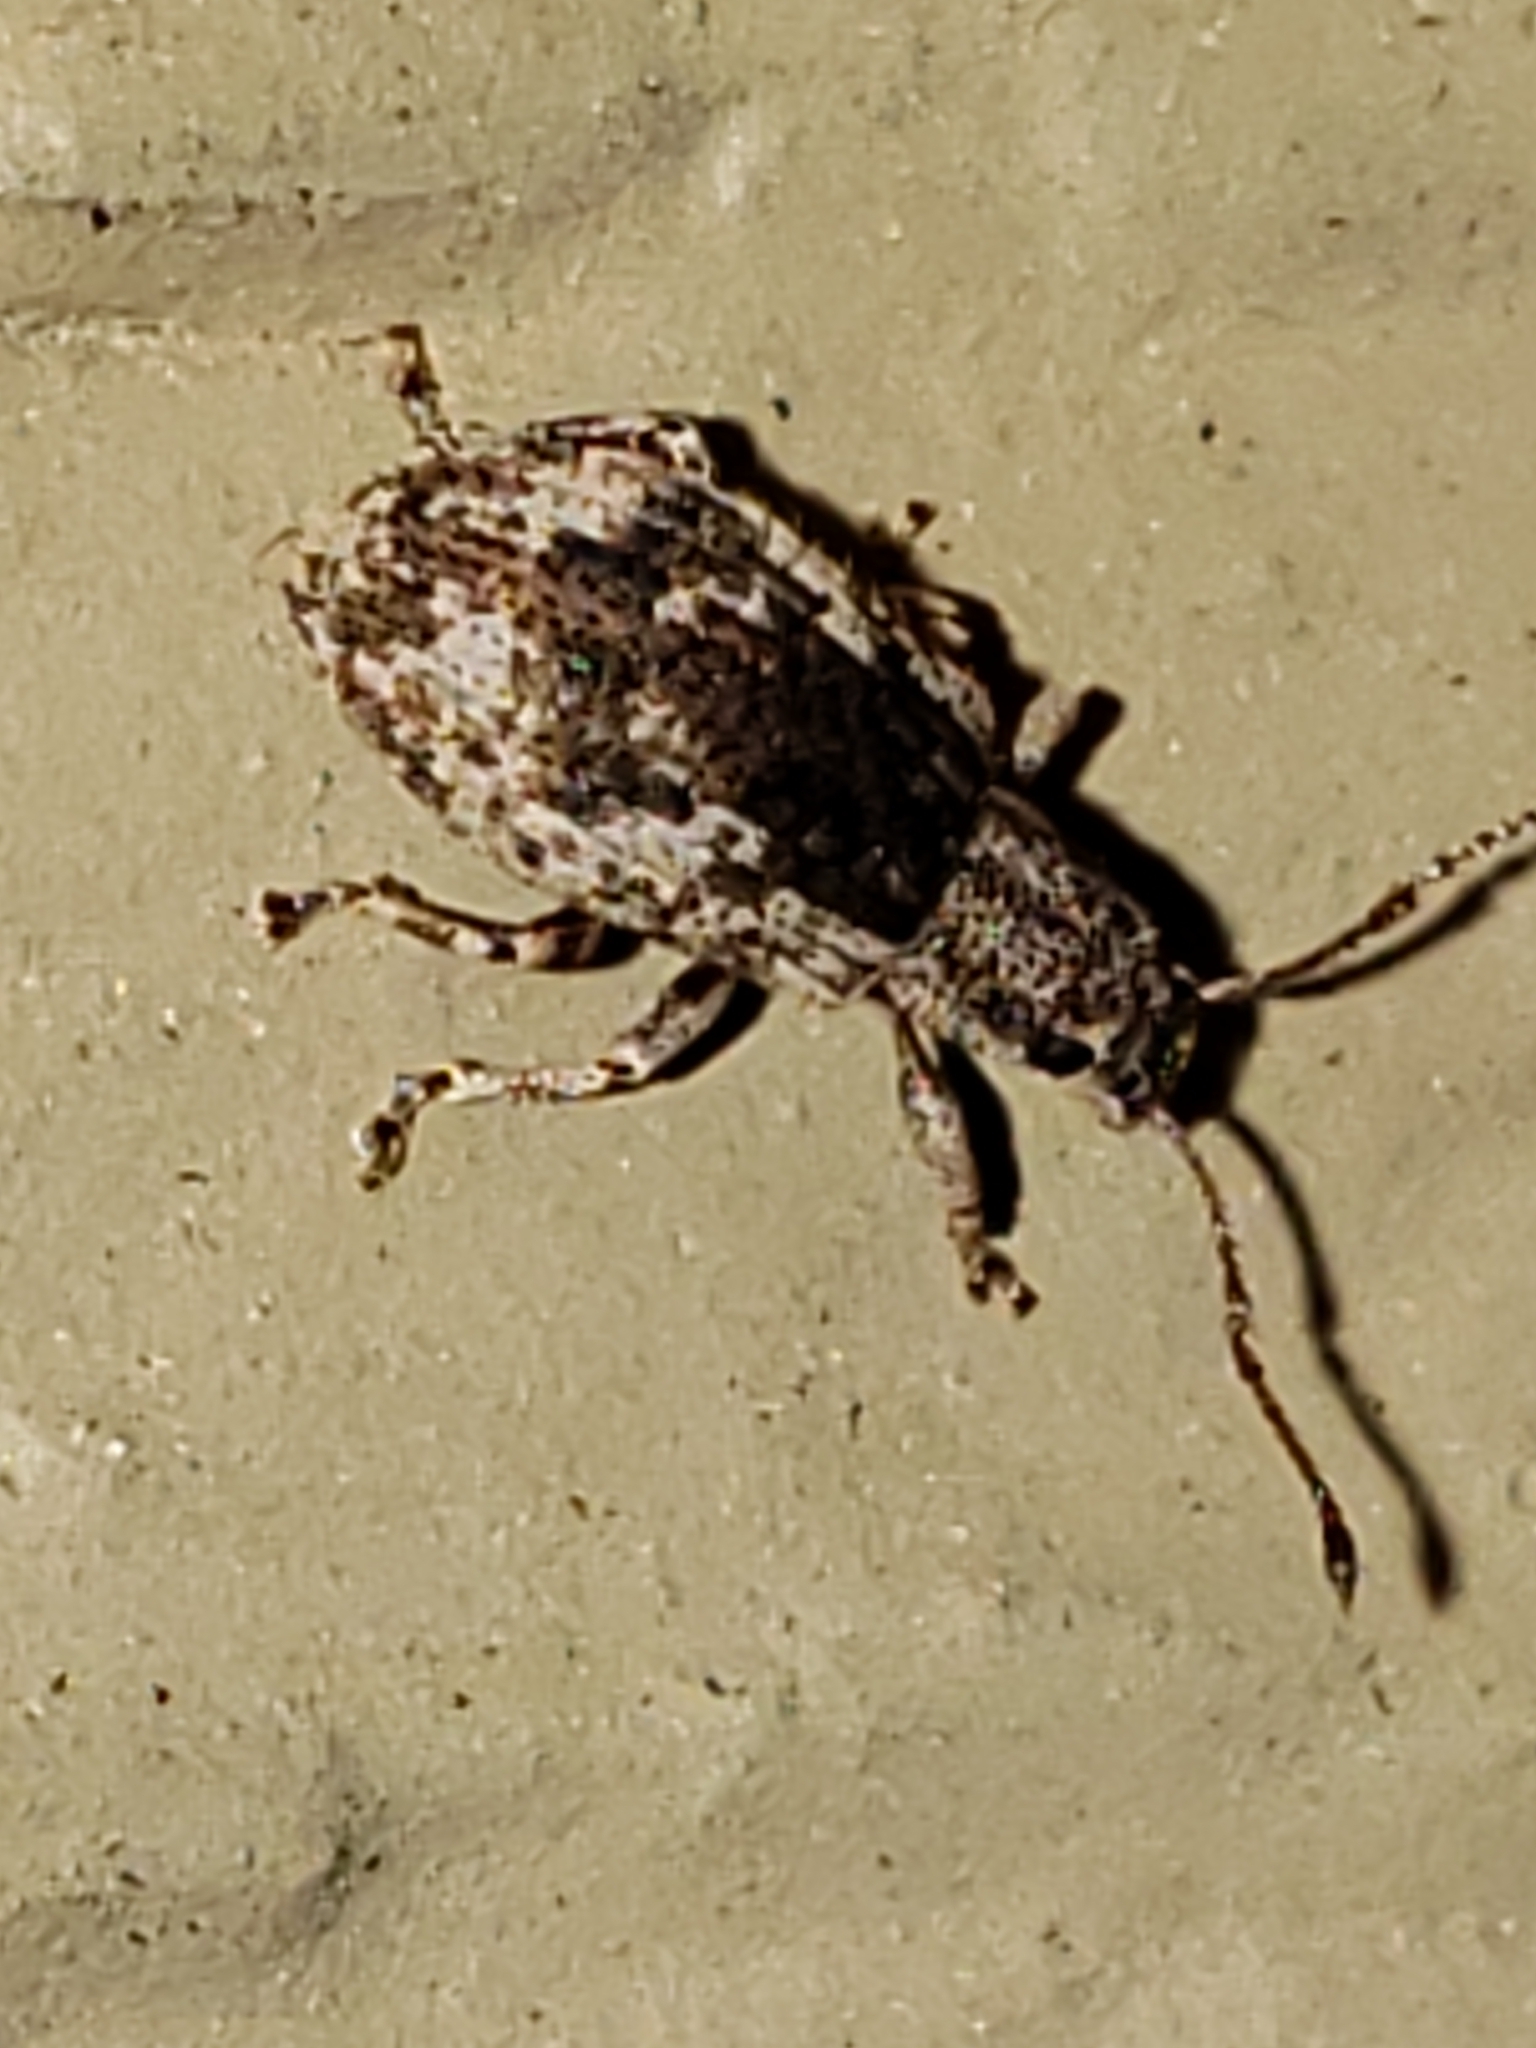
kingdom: Animalia
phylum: Arthropoda
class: Insecta
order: Coleoptera
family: Curculionidae
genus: Pseudoedophrys
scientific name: Pseudoedophrys hilleri
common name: Weevil
